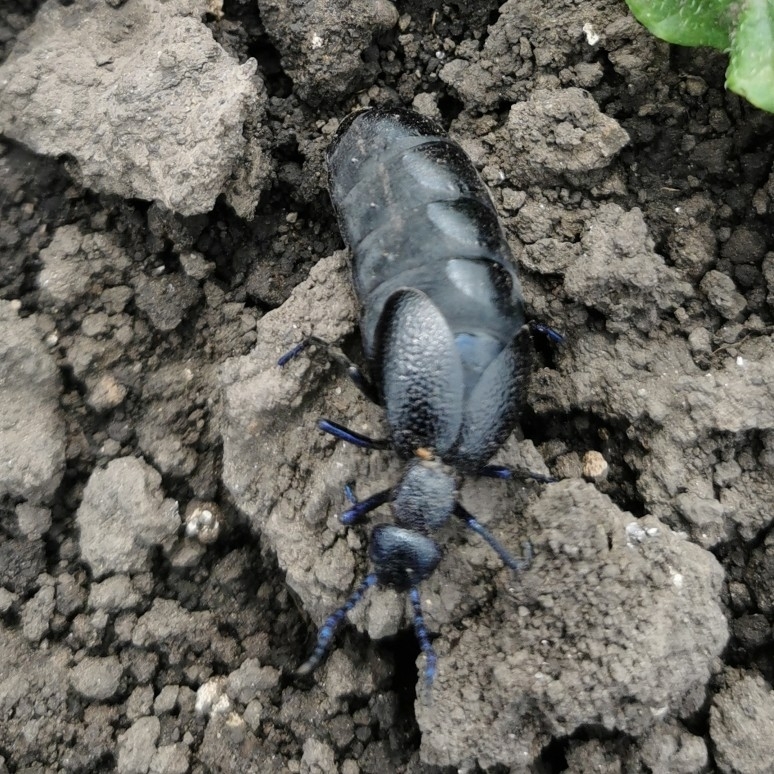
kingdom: Animalia
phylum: Arthropoda
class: Insecta
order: Coleoptera
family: Meloidae
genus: Meloe
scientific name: Meloe proscarabaeus
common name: Black oil-beetle
